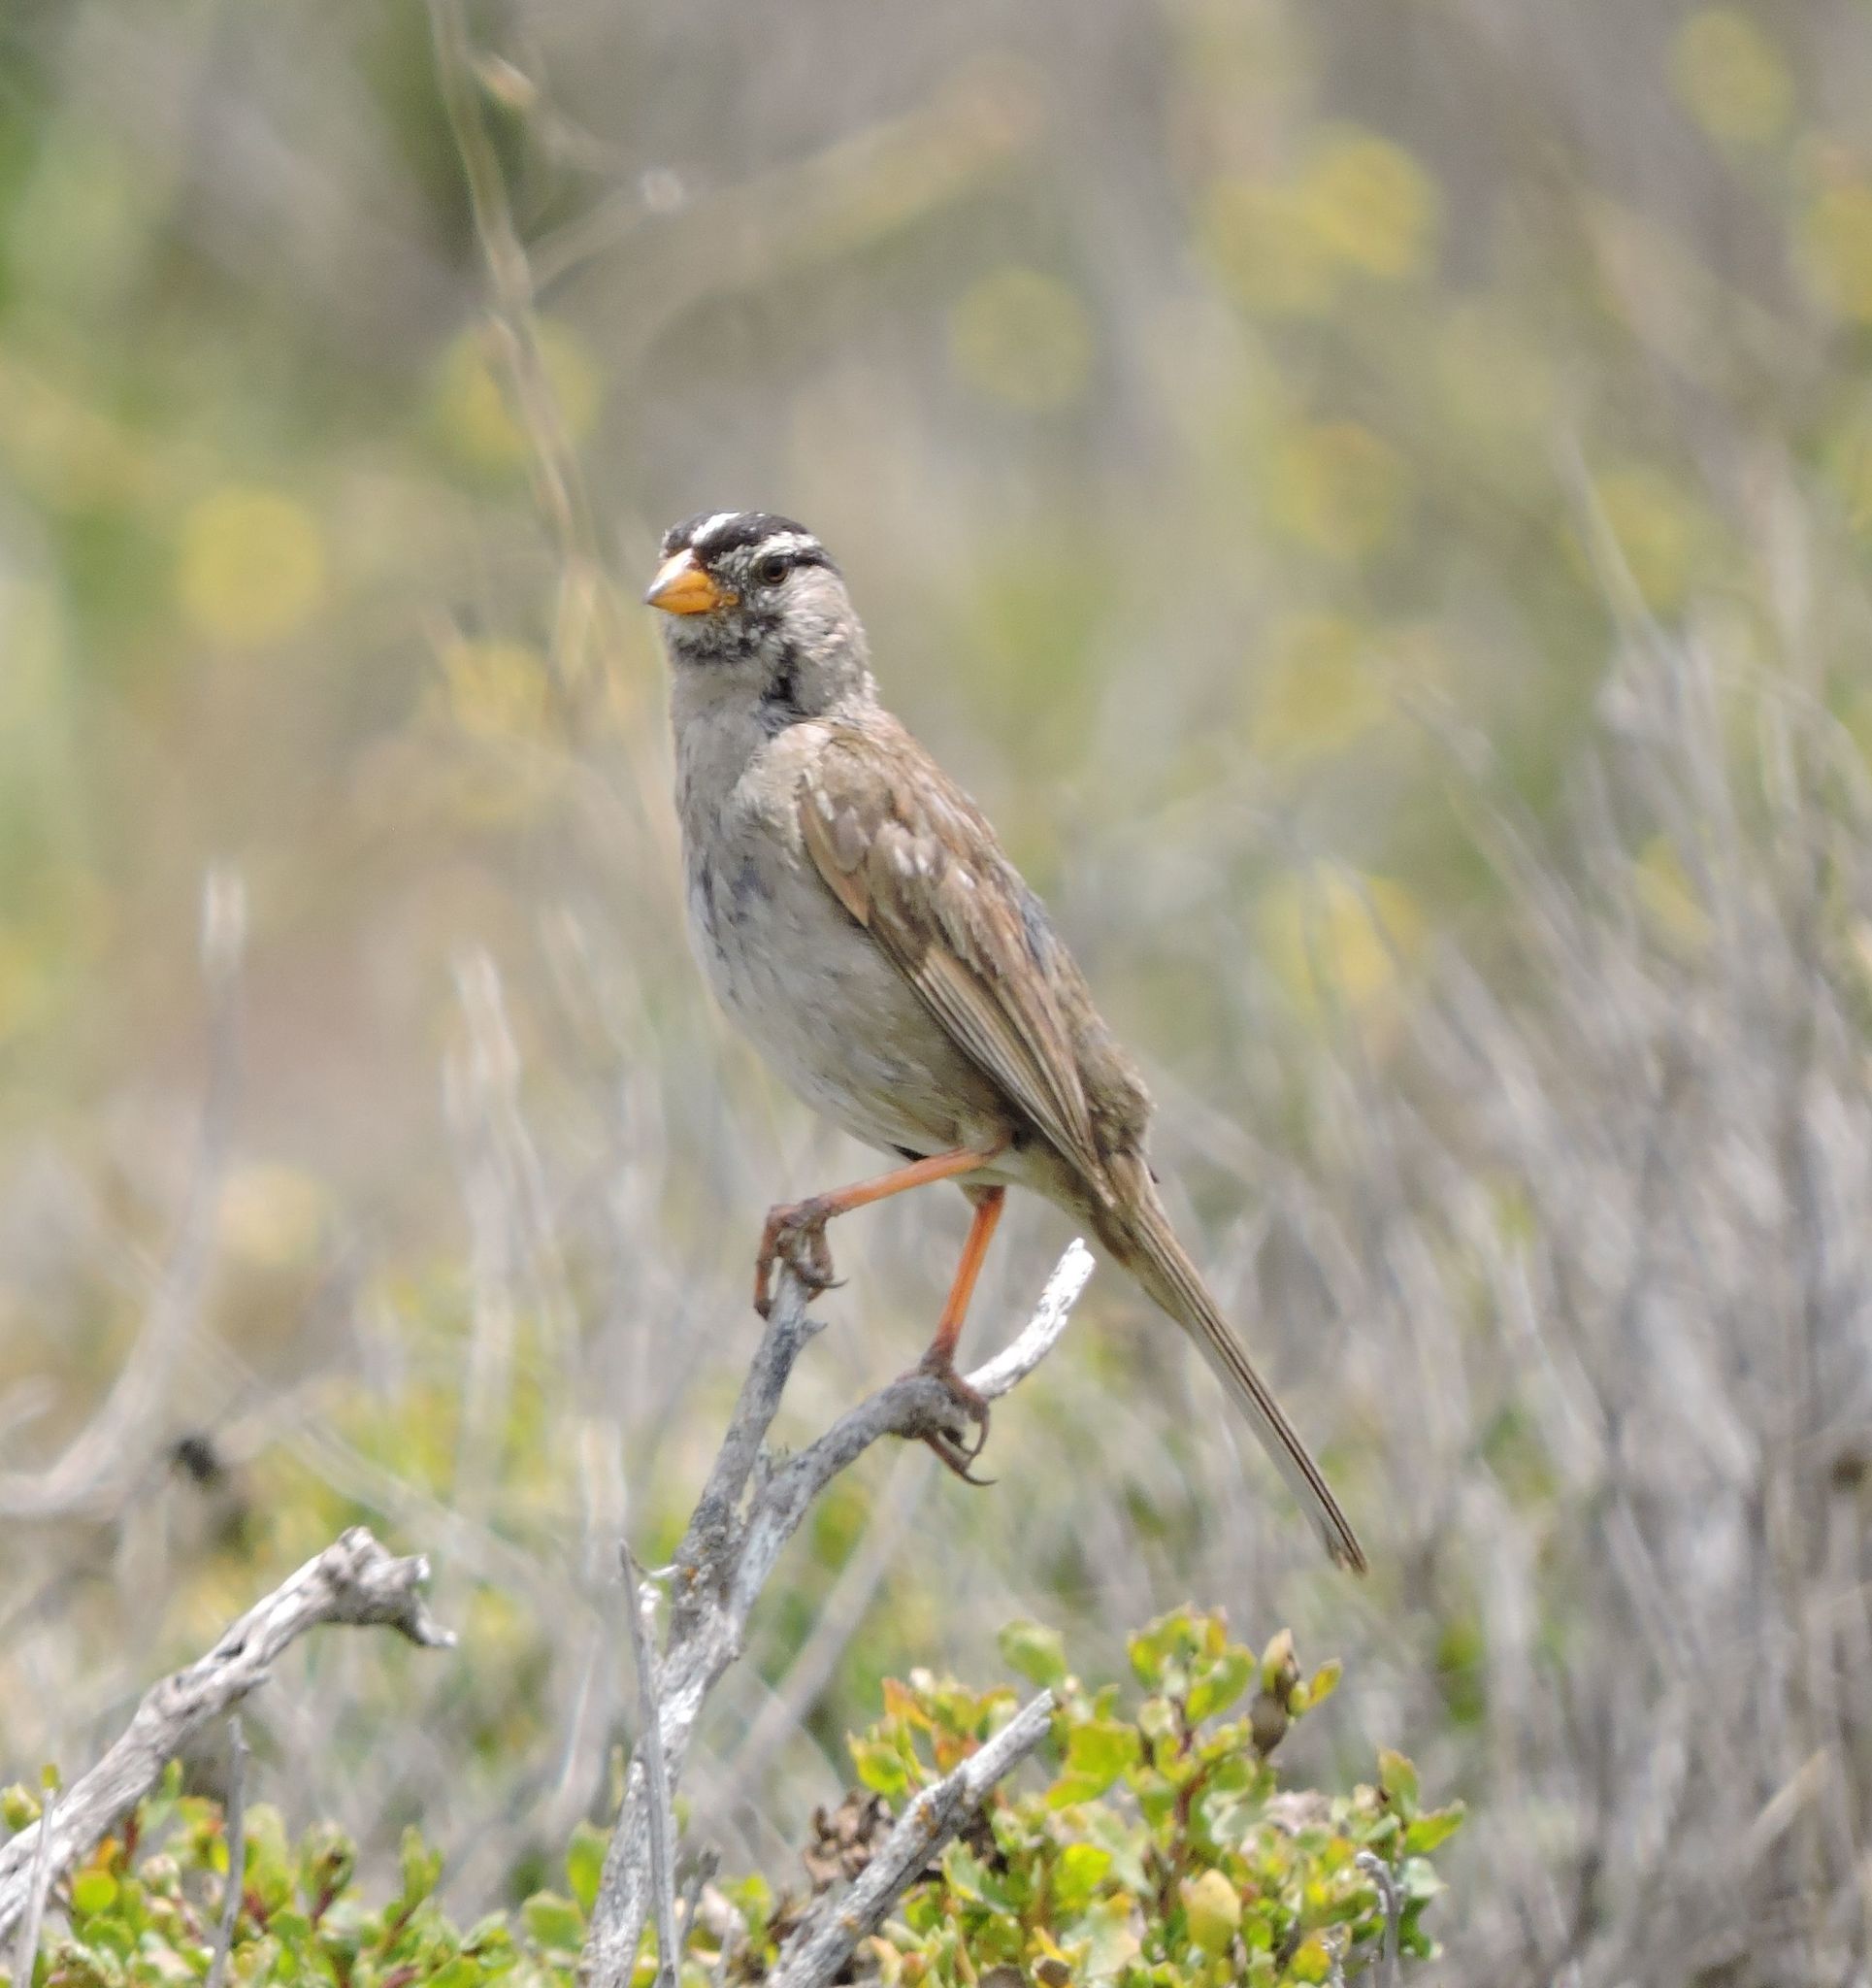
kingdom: Animalia
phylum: Chordata
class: Aves
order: Passeriformes
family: Passerellidae
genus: Zonotrichia
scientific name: Zonotrichia leucophrys
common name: White-crowned sparrow
